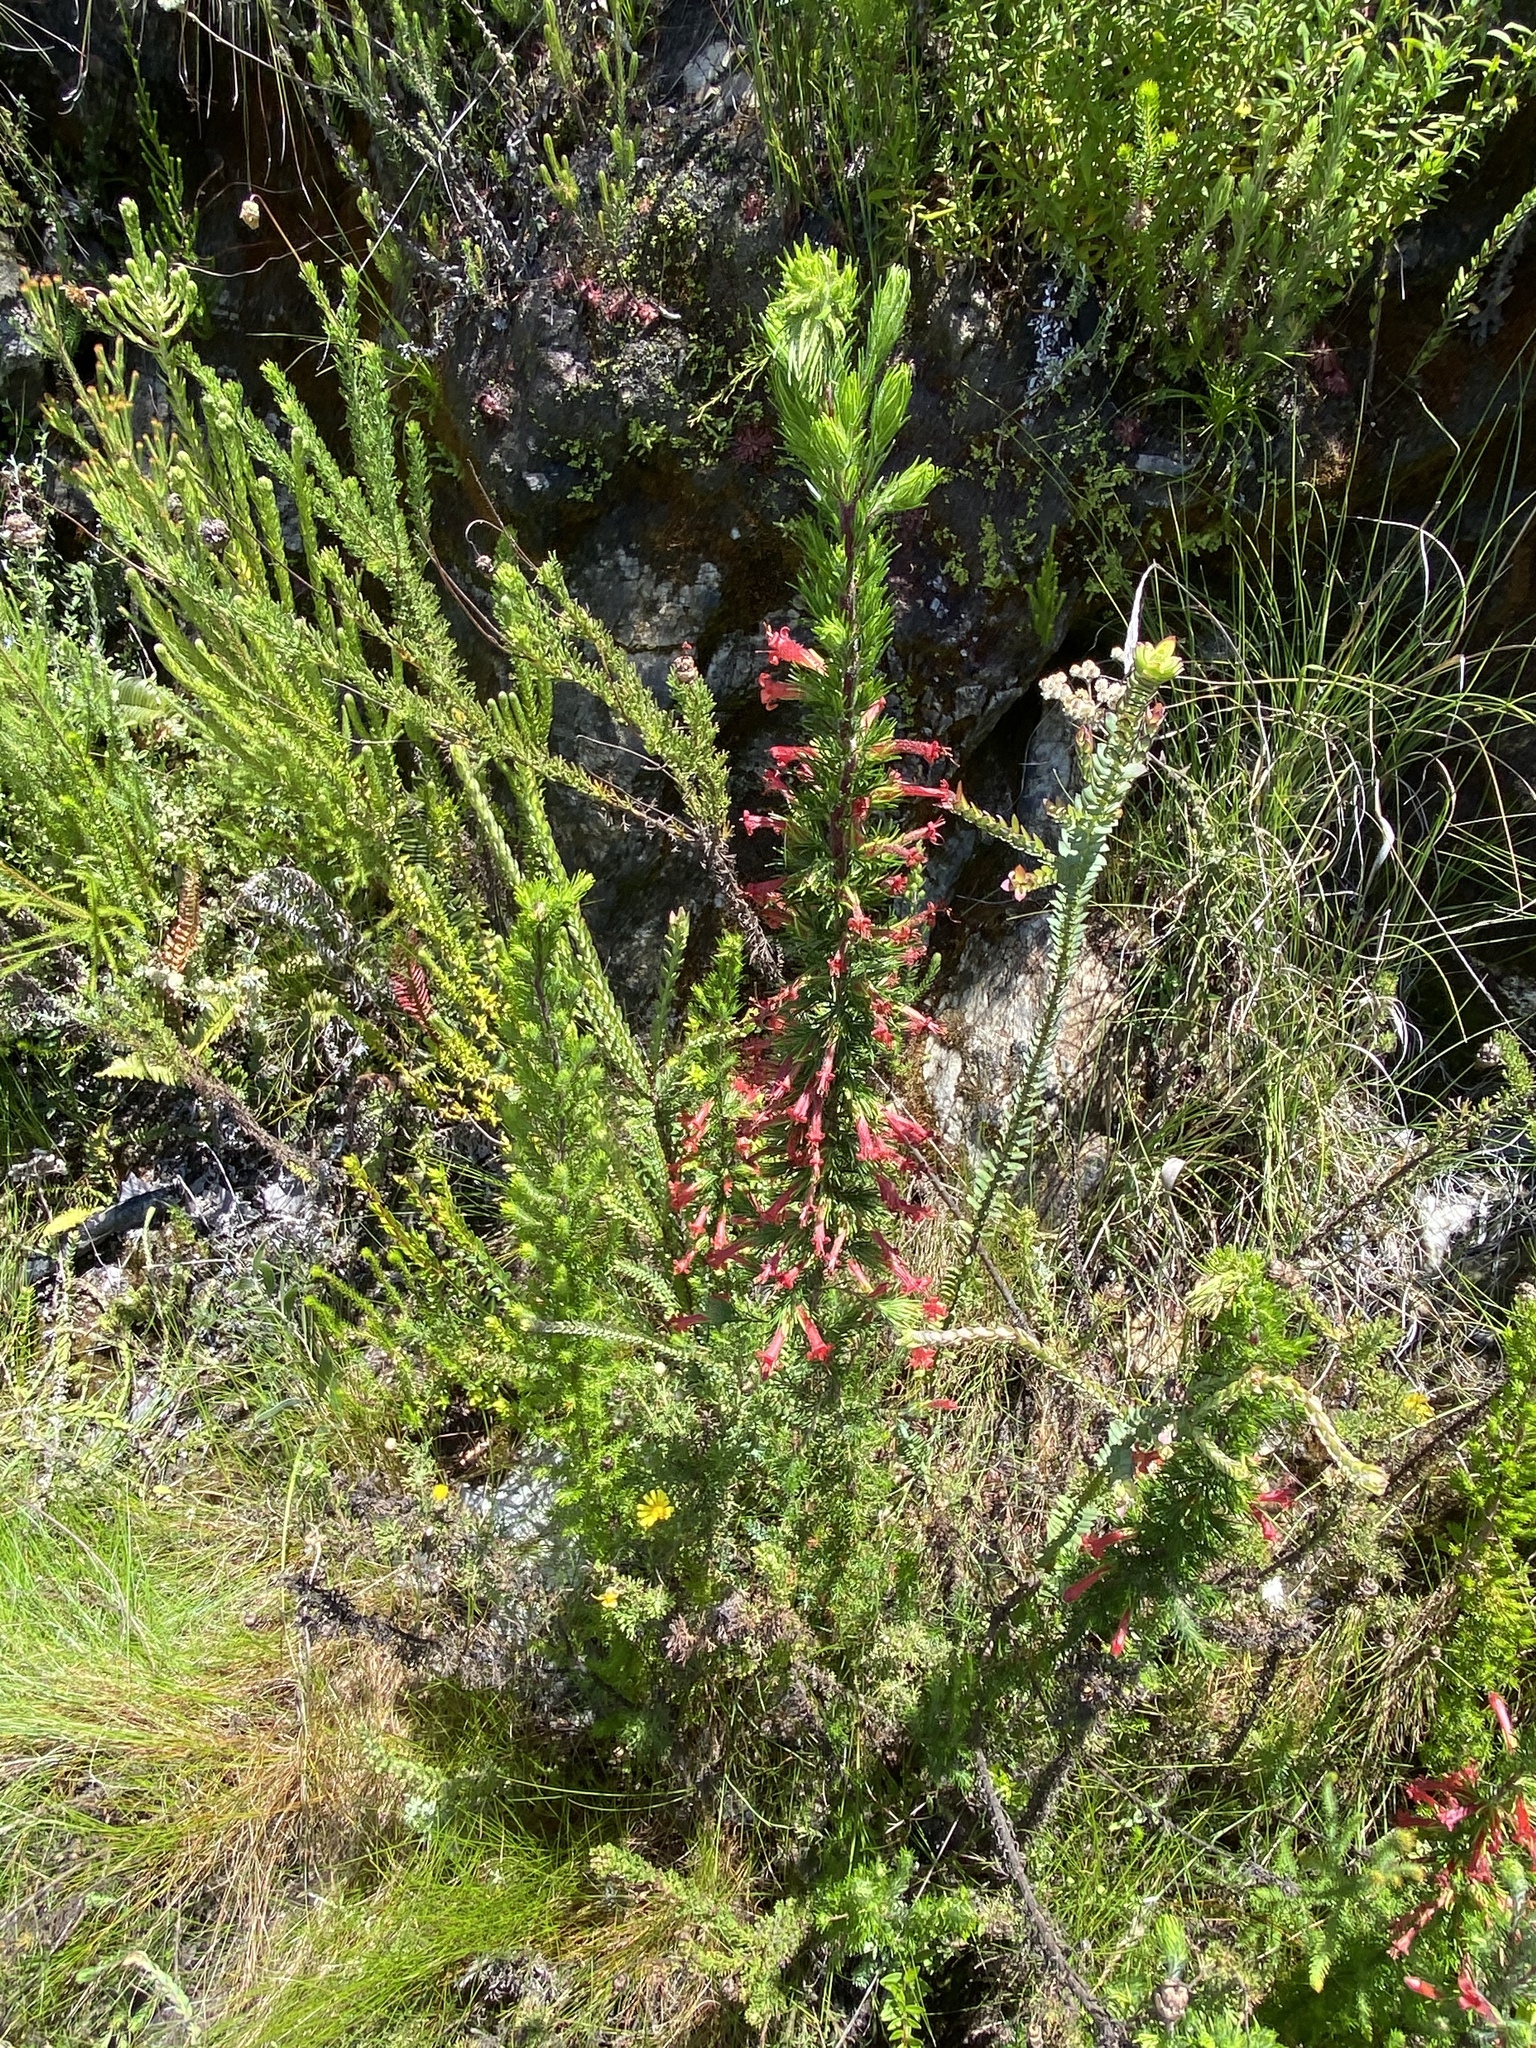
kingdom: Plantae
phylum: Tracheophyta
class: Magnoliopsida
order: Ericales
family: Ericaceae
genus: Erica
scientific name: Erica curviflora
